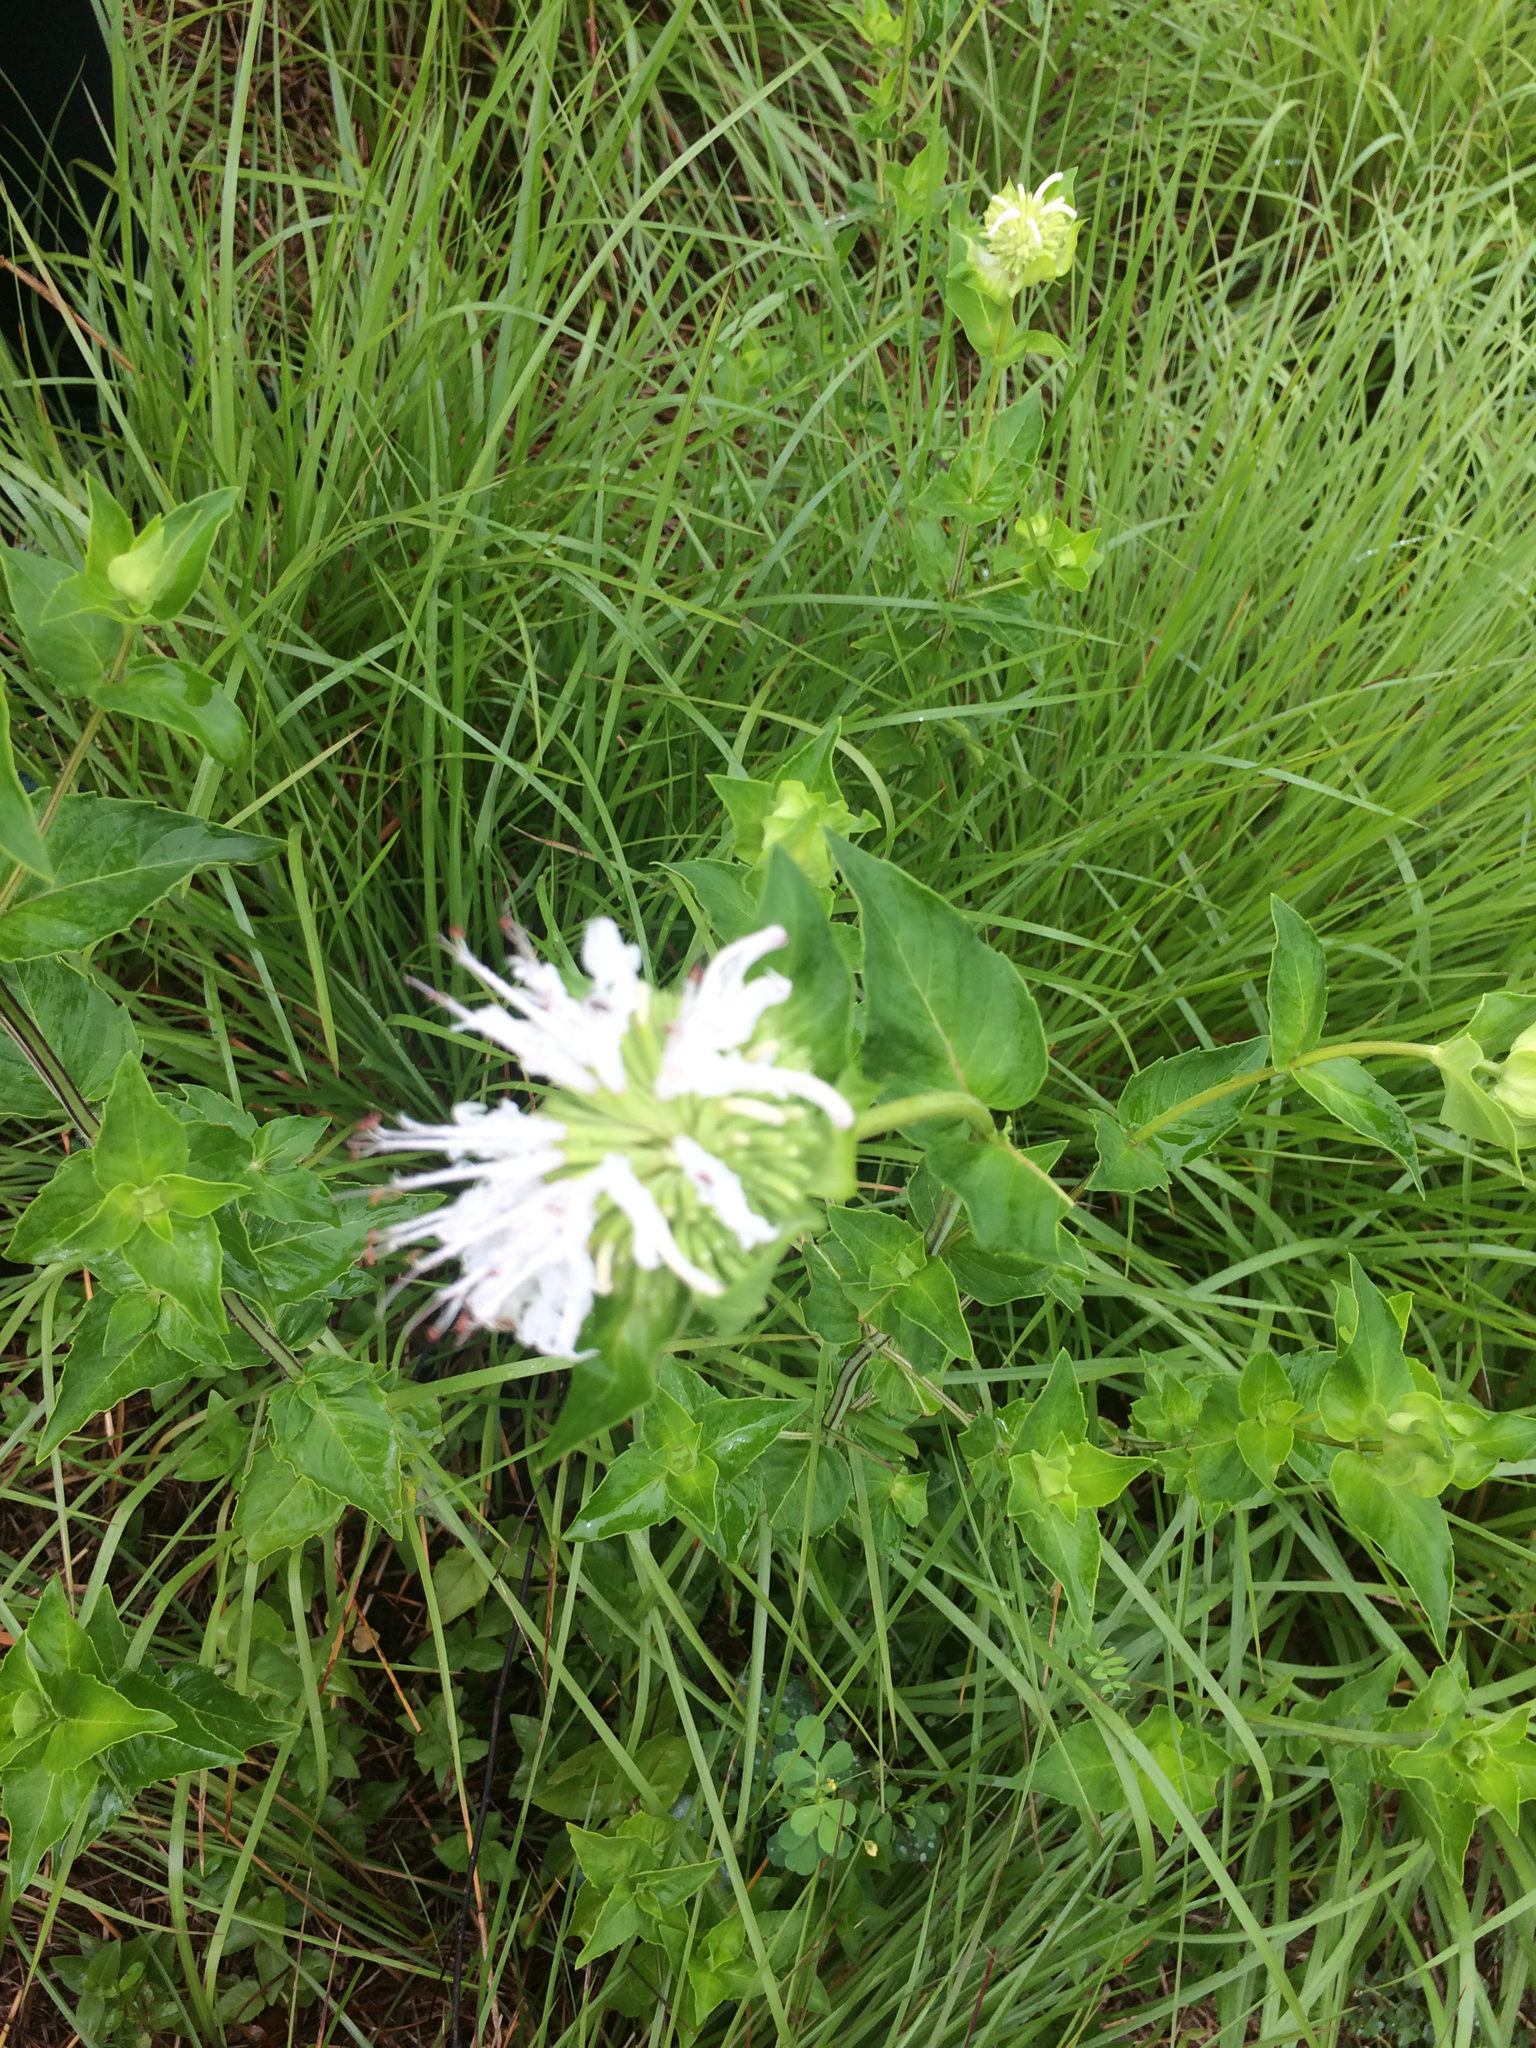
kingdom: Plantae
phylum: Tracheophyta
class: Magnoliopsida
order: Lamiales
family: Lamiaceae
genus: Monarda
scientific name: Monarda lindheimeri
